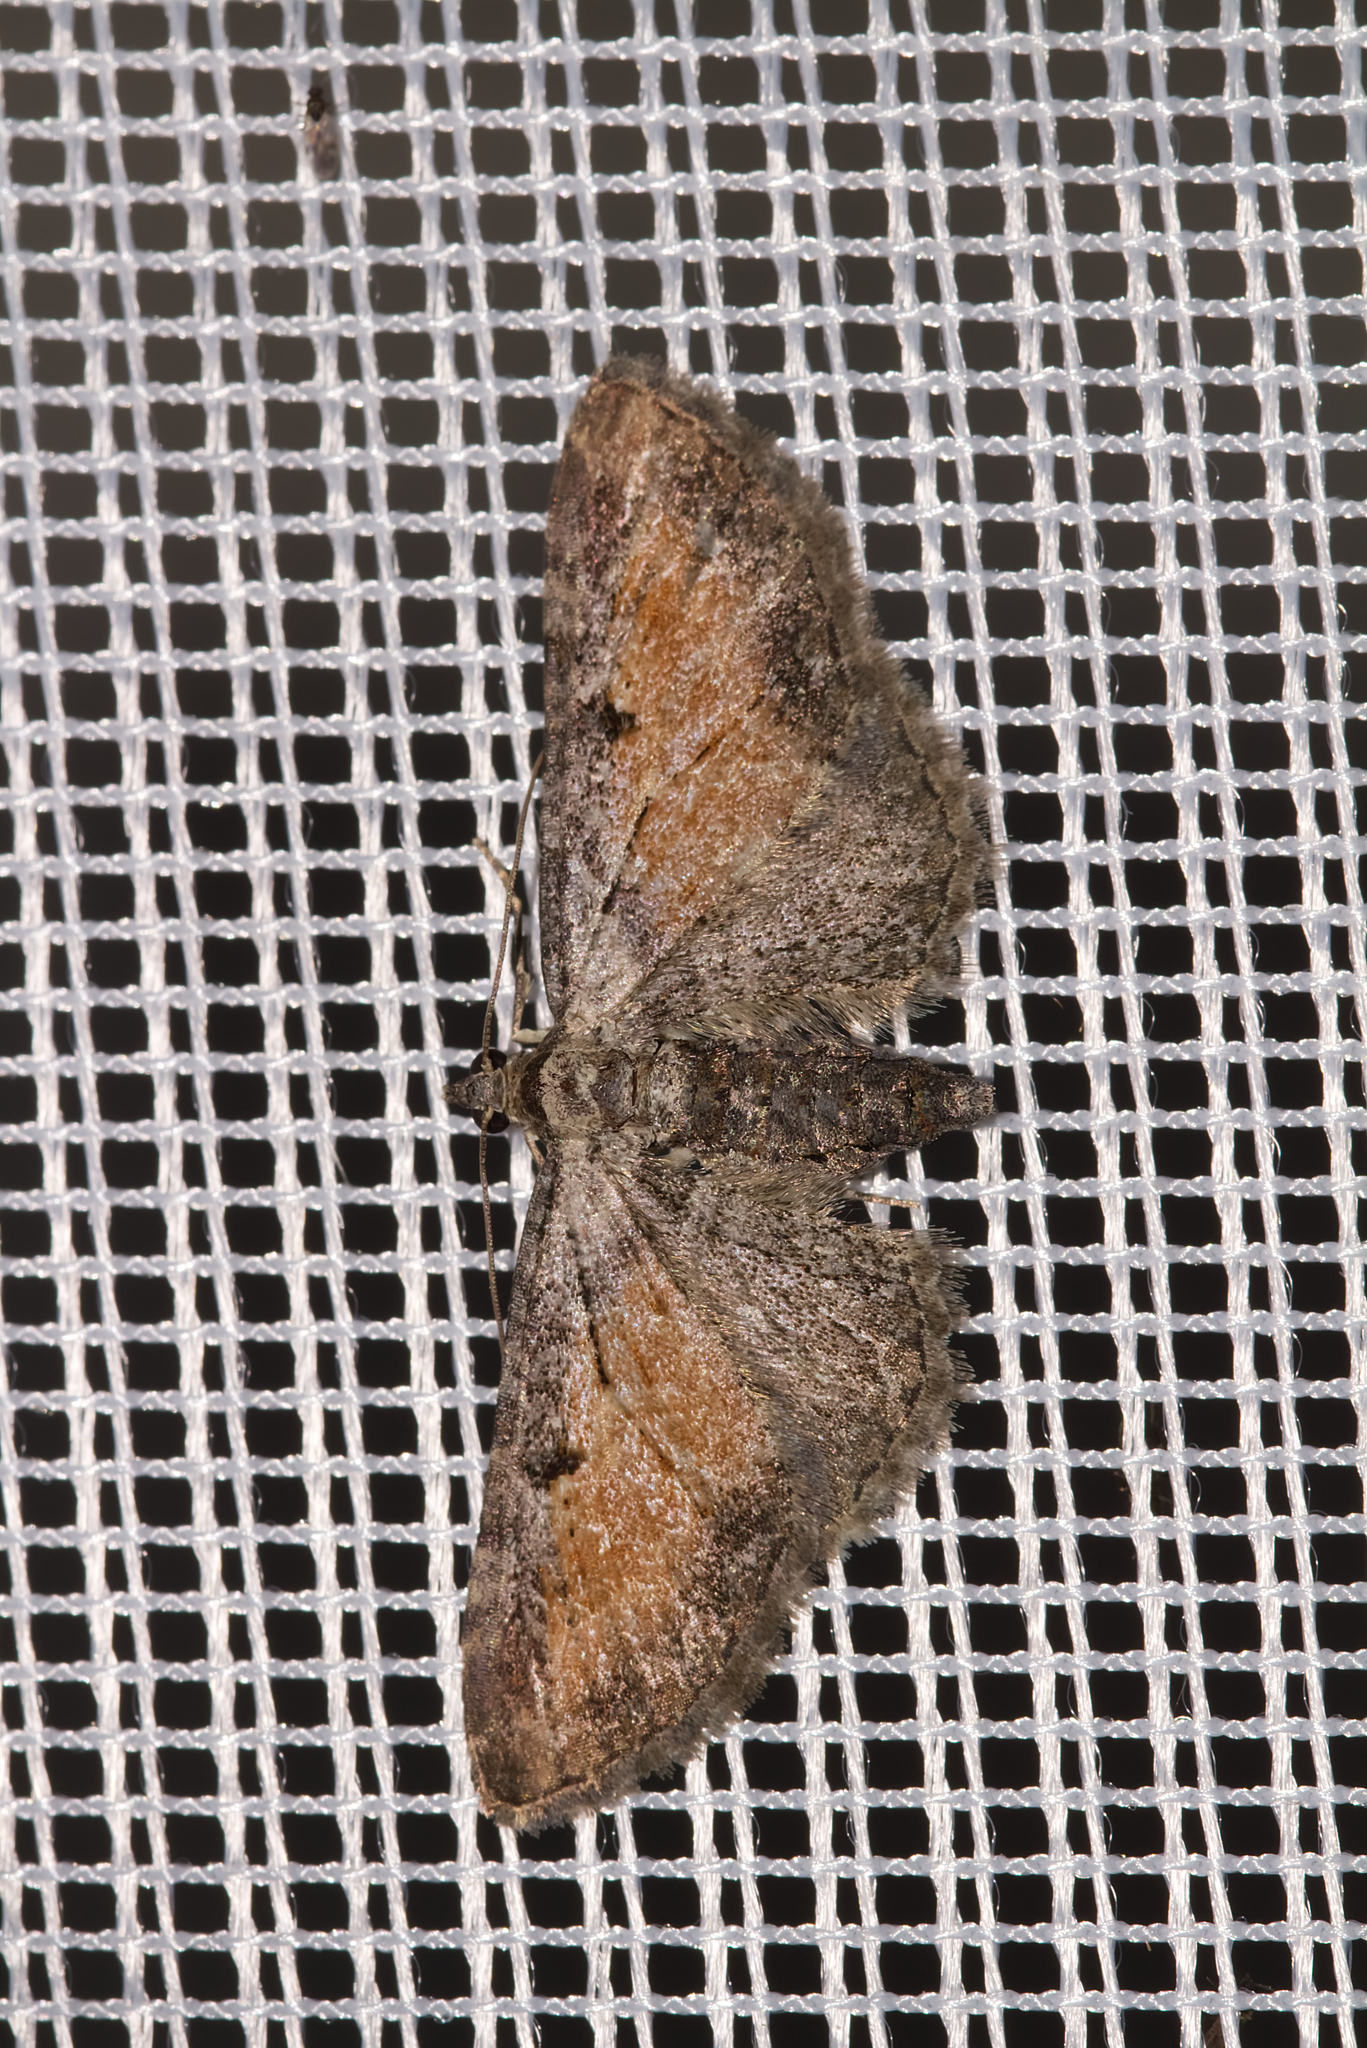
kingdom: Animalia
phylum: Arthropoda
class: Insecta
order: Lepidoptera
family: Geometridae
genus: Eupithecia
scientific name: Eupithecia icterata
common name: Tawny speckled pug
